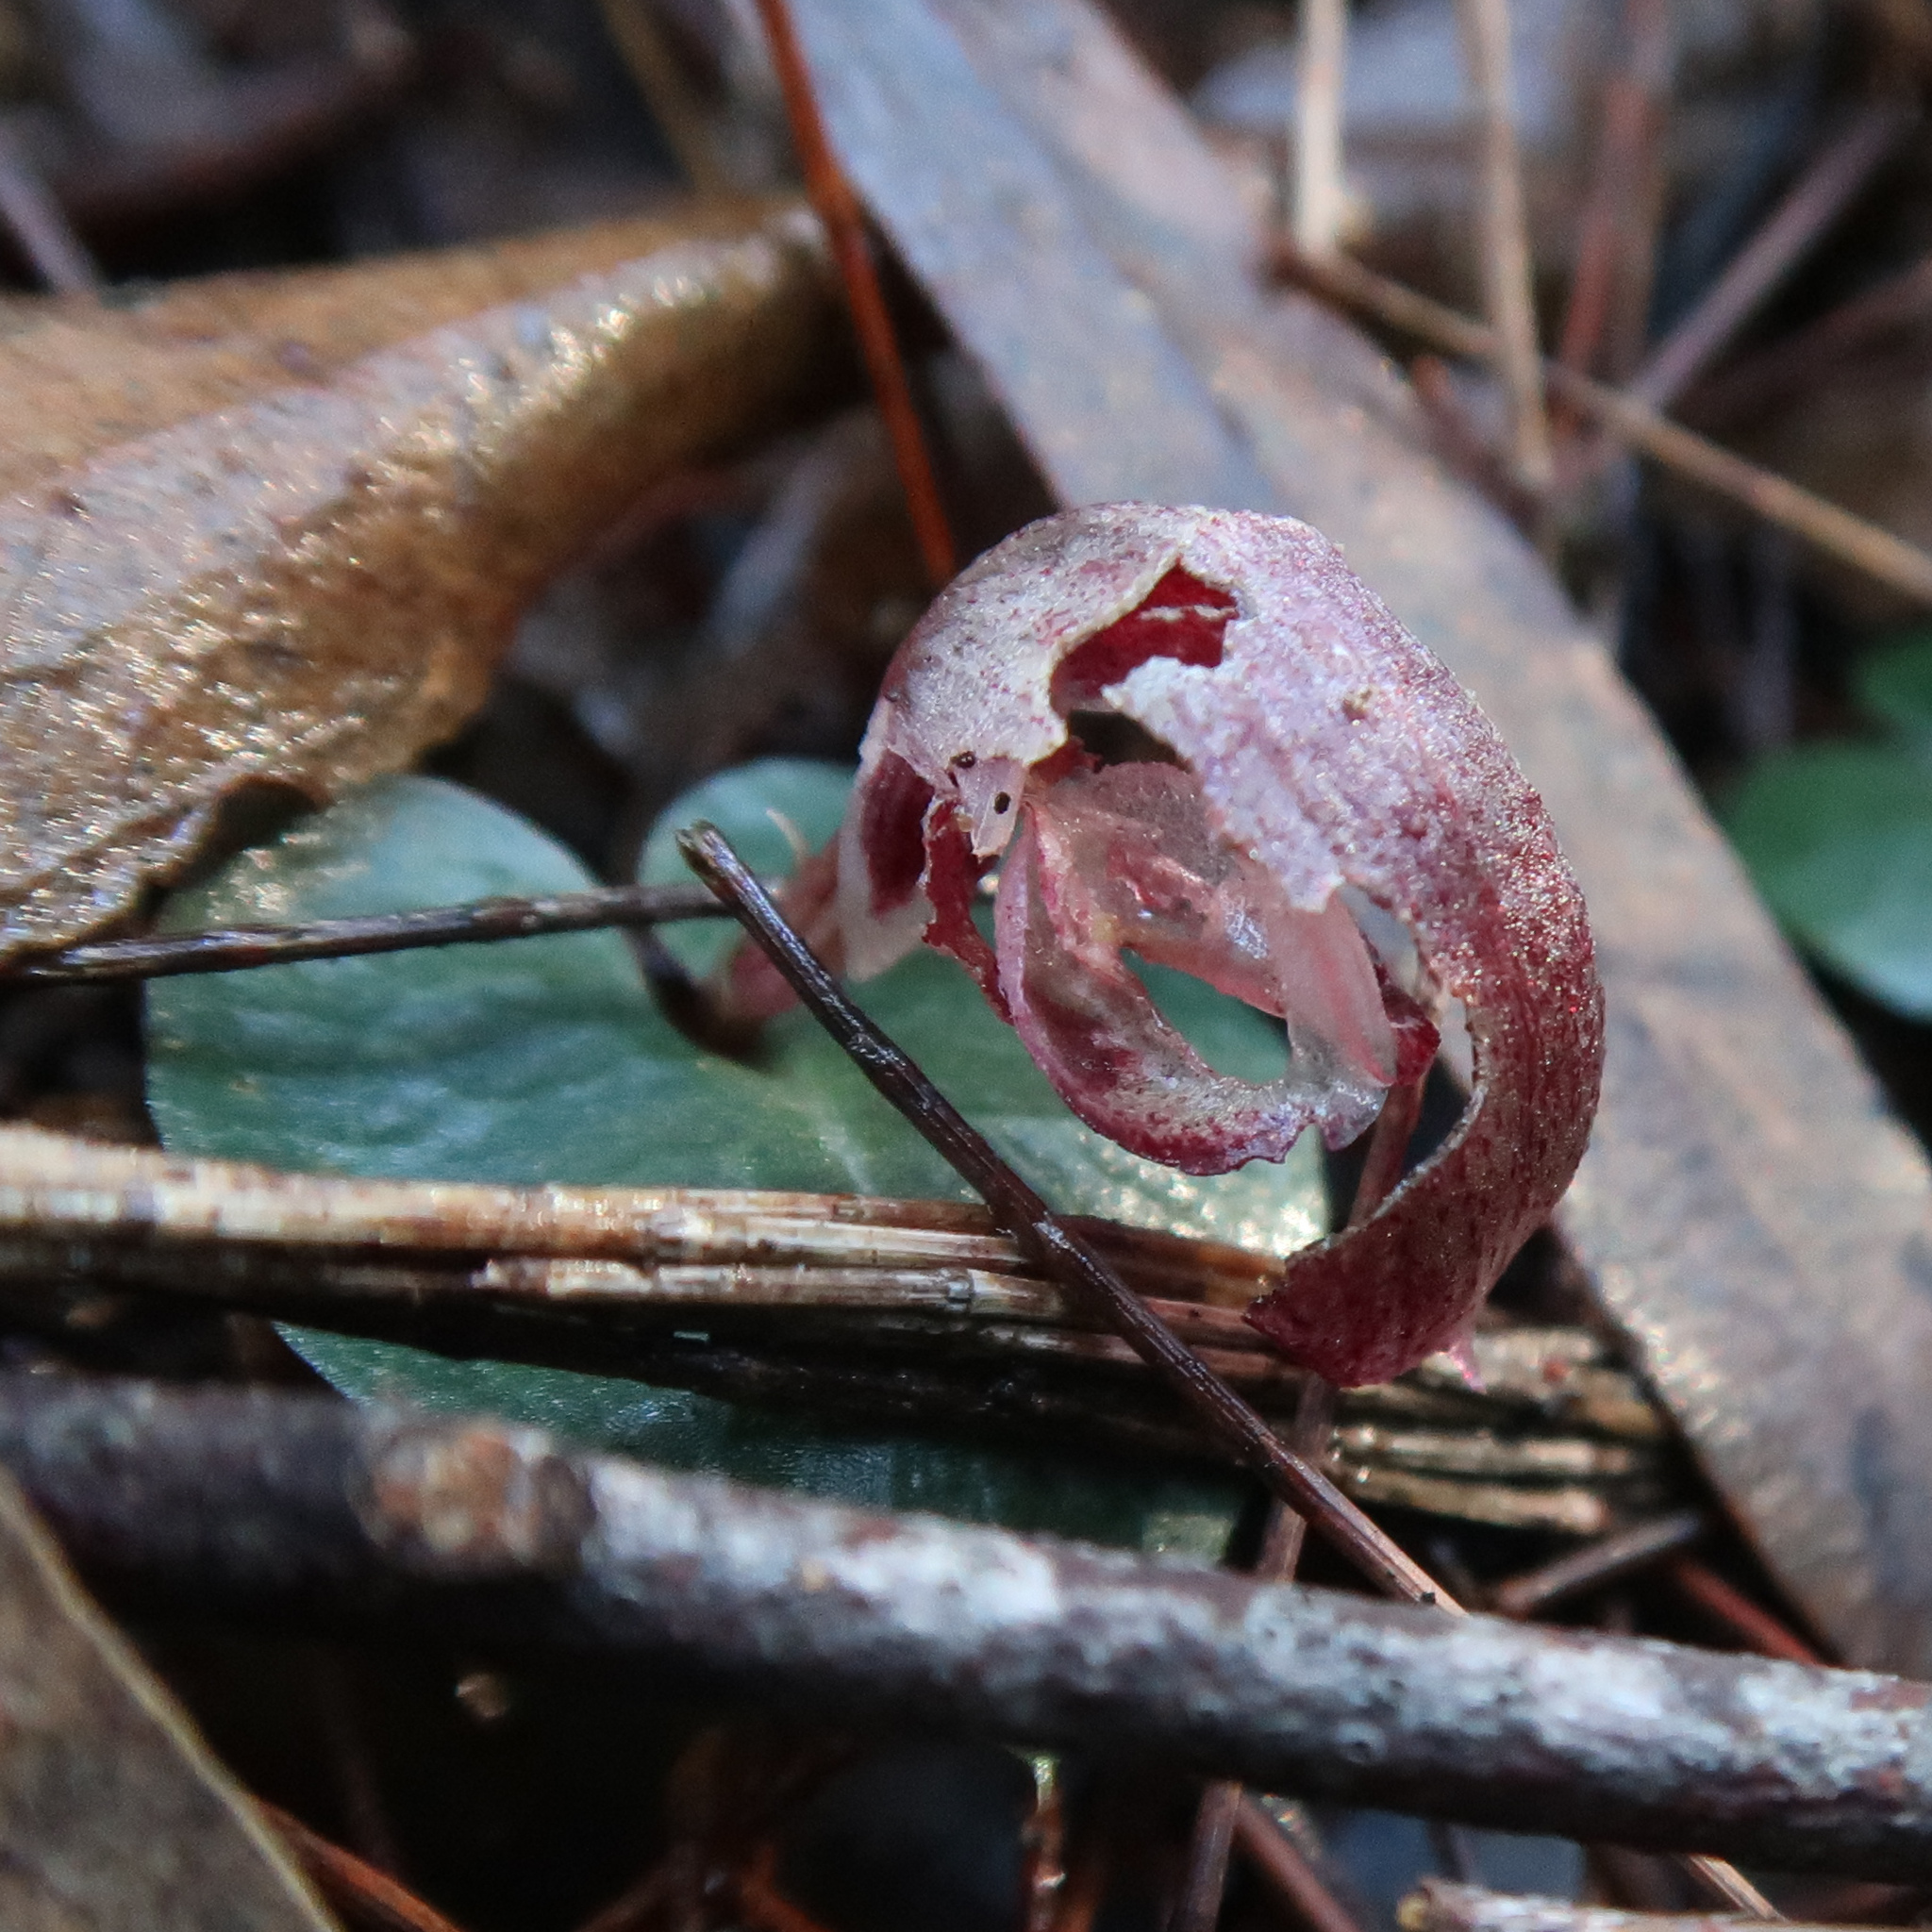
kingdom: Plantae
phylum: Tracheophyta
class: Liliopsida
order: Asparagales
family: Orchidaceae
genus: Corybas
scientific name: Corybas aconitiflorus
